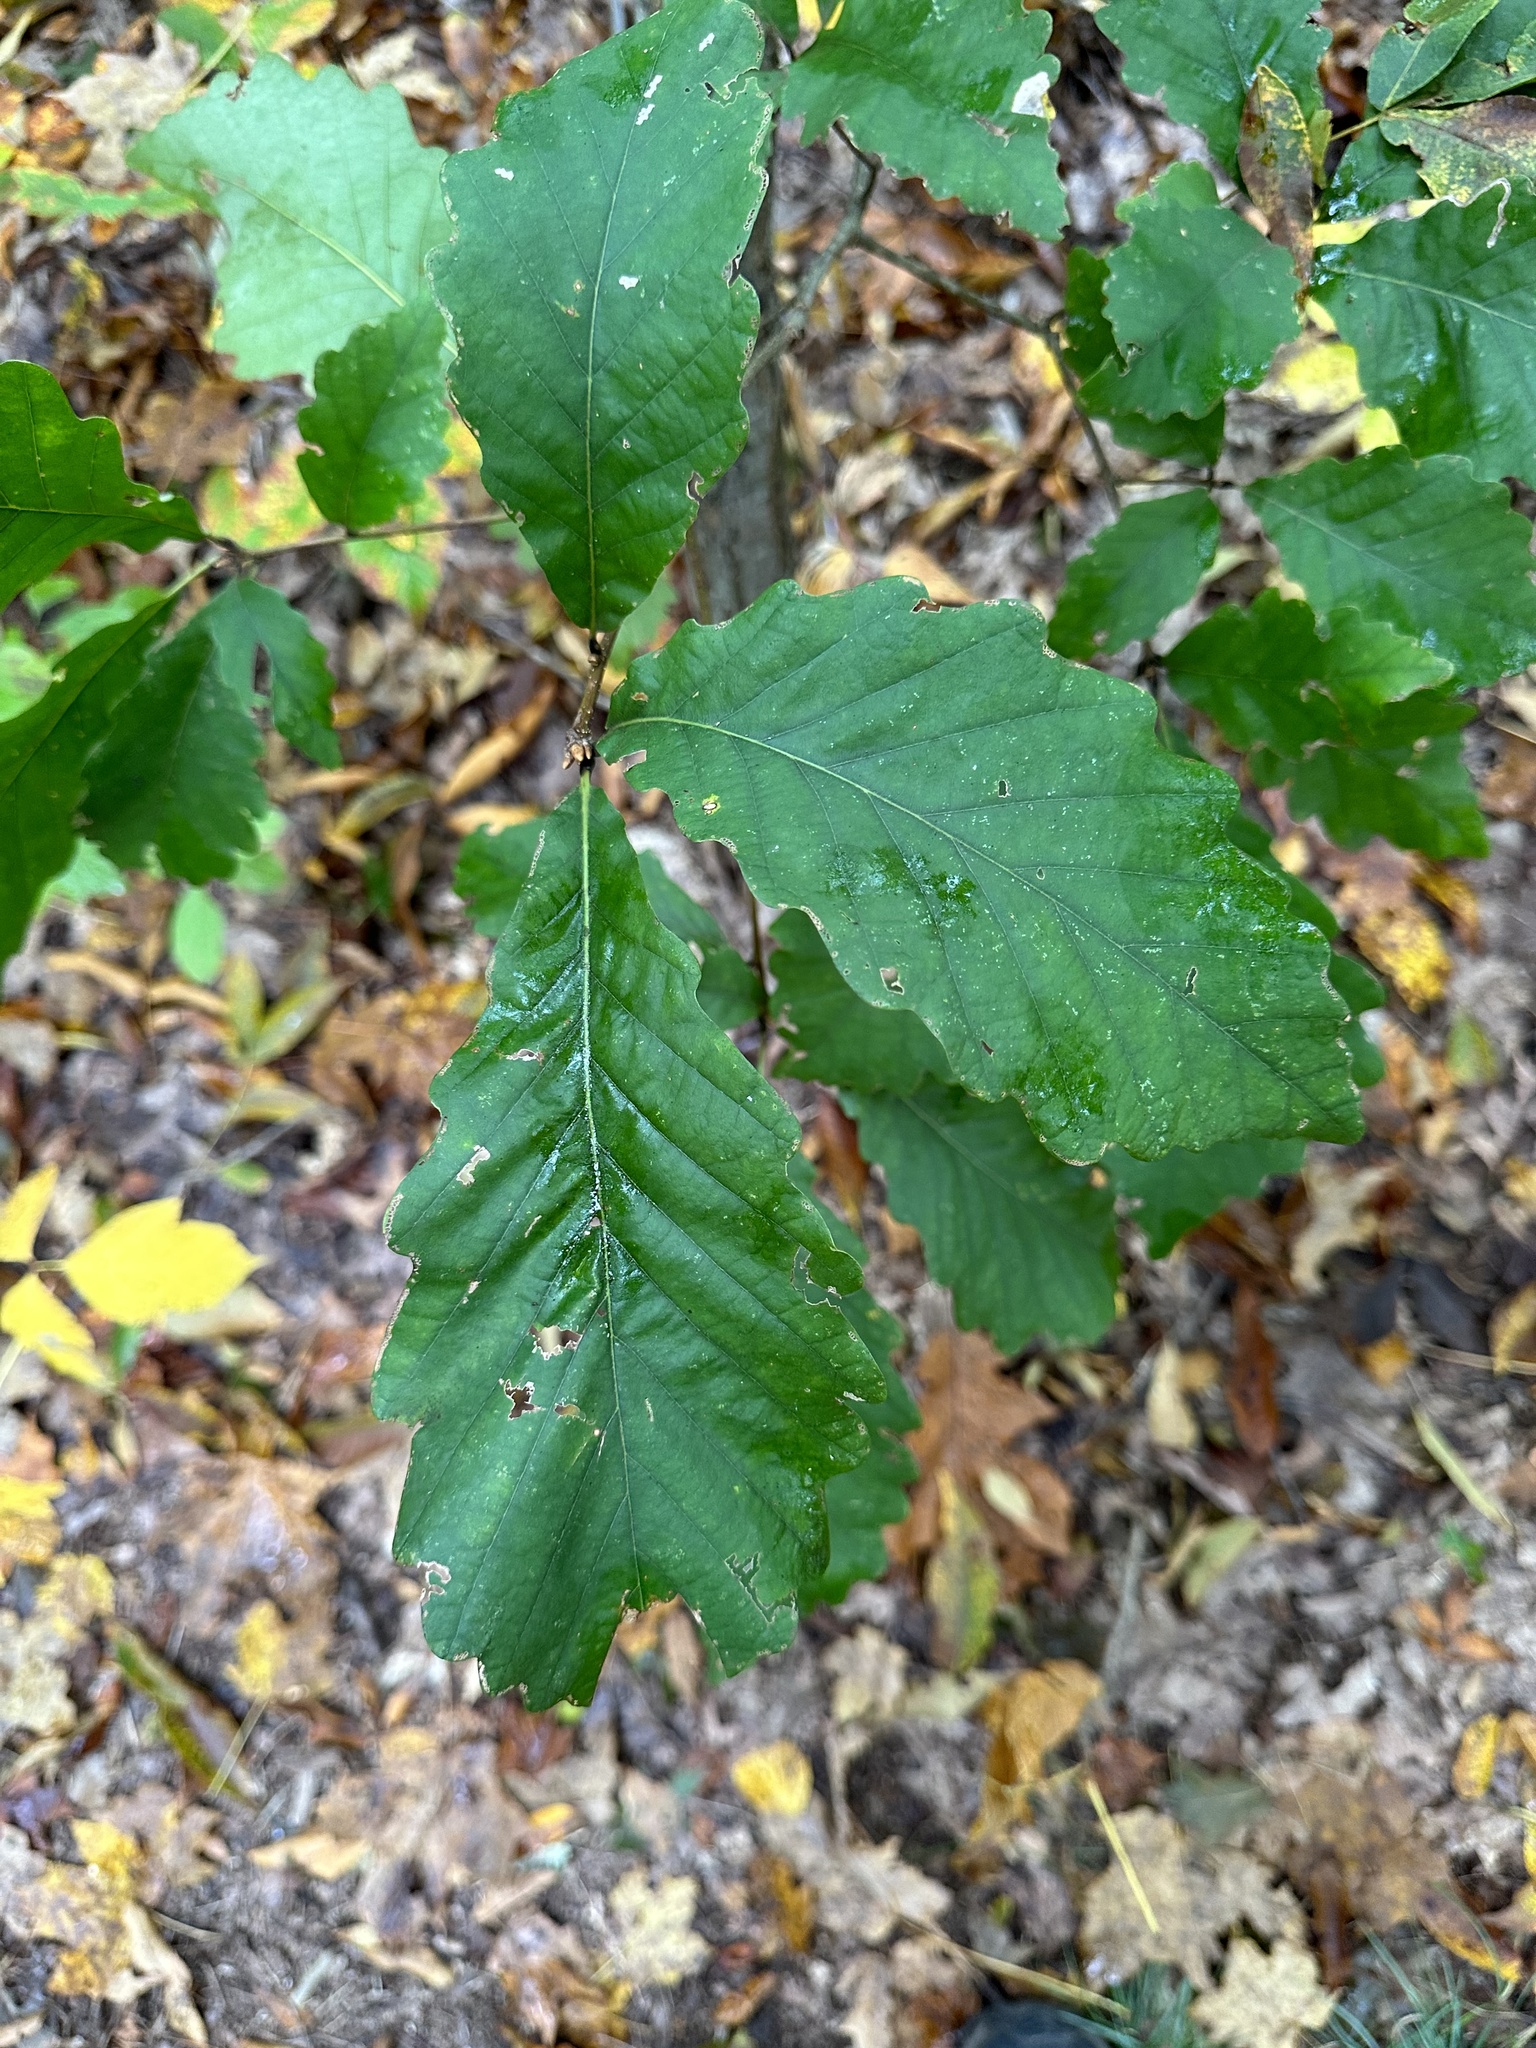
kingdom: Plantae
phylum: Tracheophyta
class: Magnoliopsida
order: Fagales
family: Fagaceae
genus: Quercus
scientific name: Quercus montana
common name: Chestnut oak
